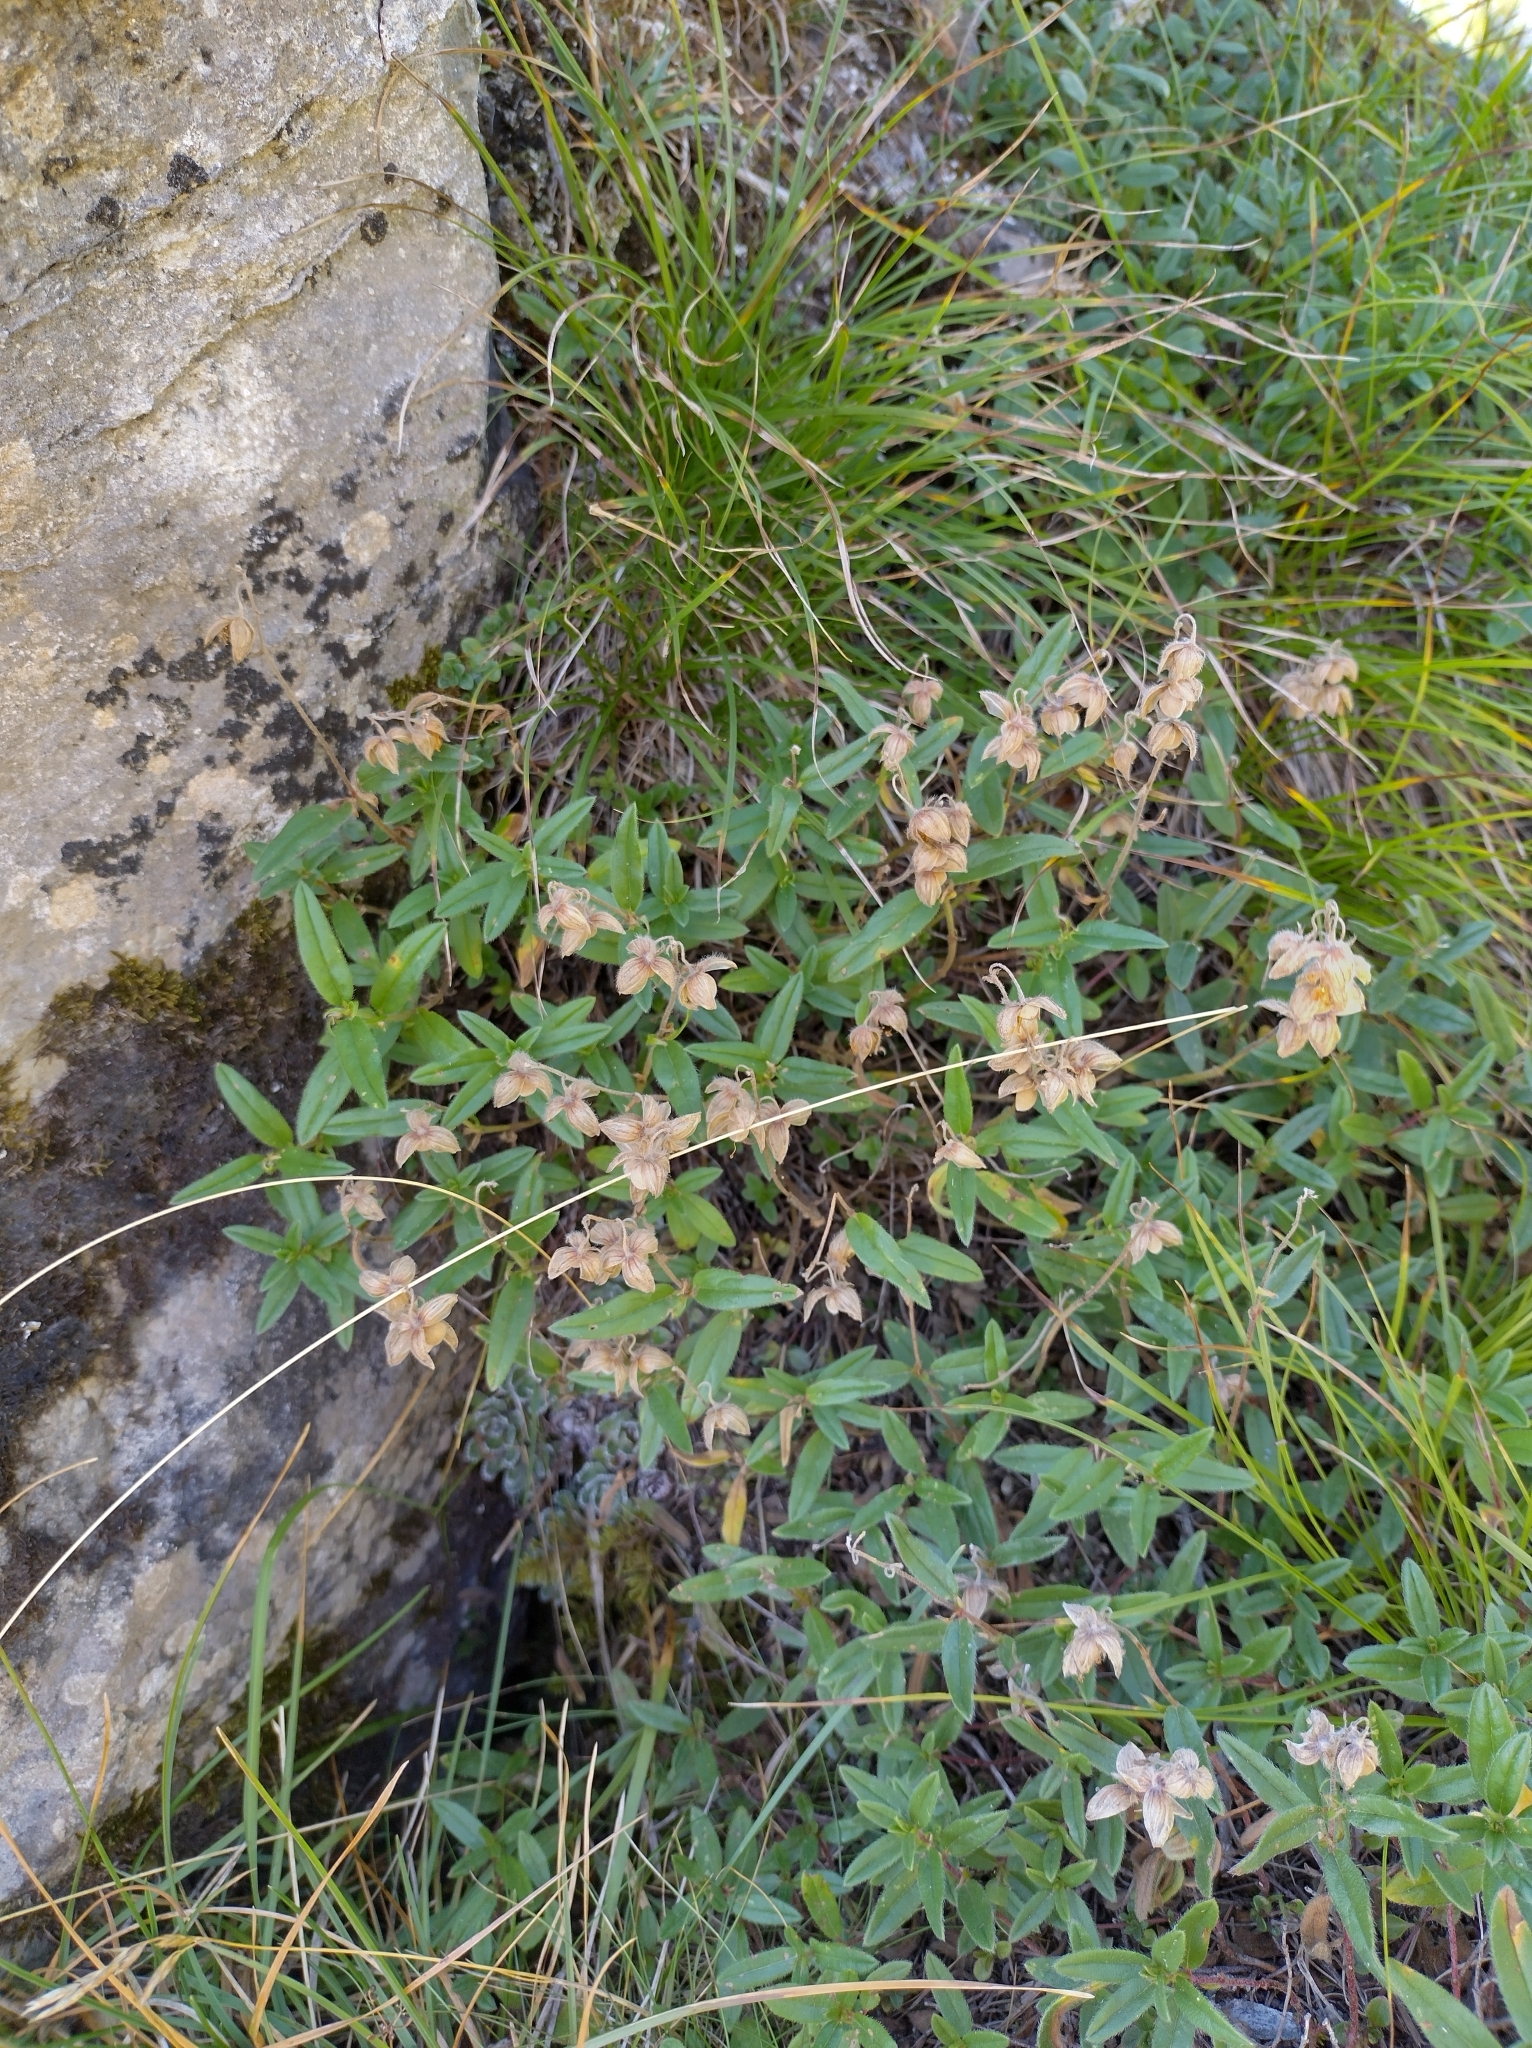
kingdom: Plantae
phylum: Tracheophyta
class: Magnoliopsida
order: Malvales
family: Cistaceae
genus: Helianthemum
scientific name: Helianthemum nummularium
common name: Common rock-rose
